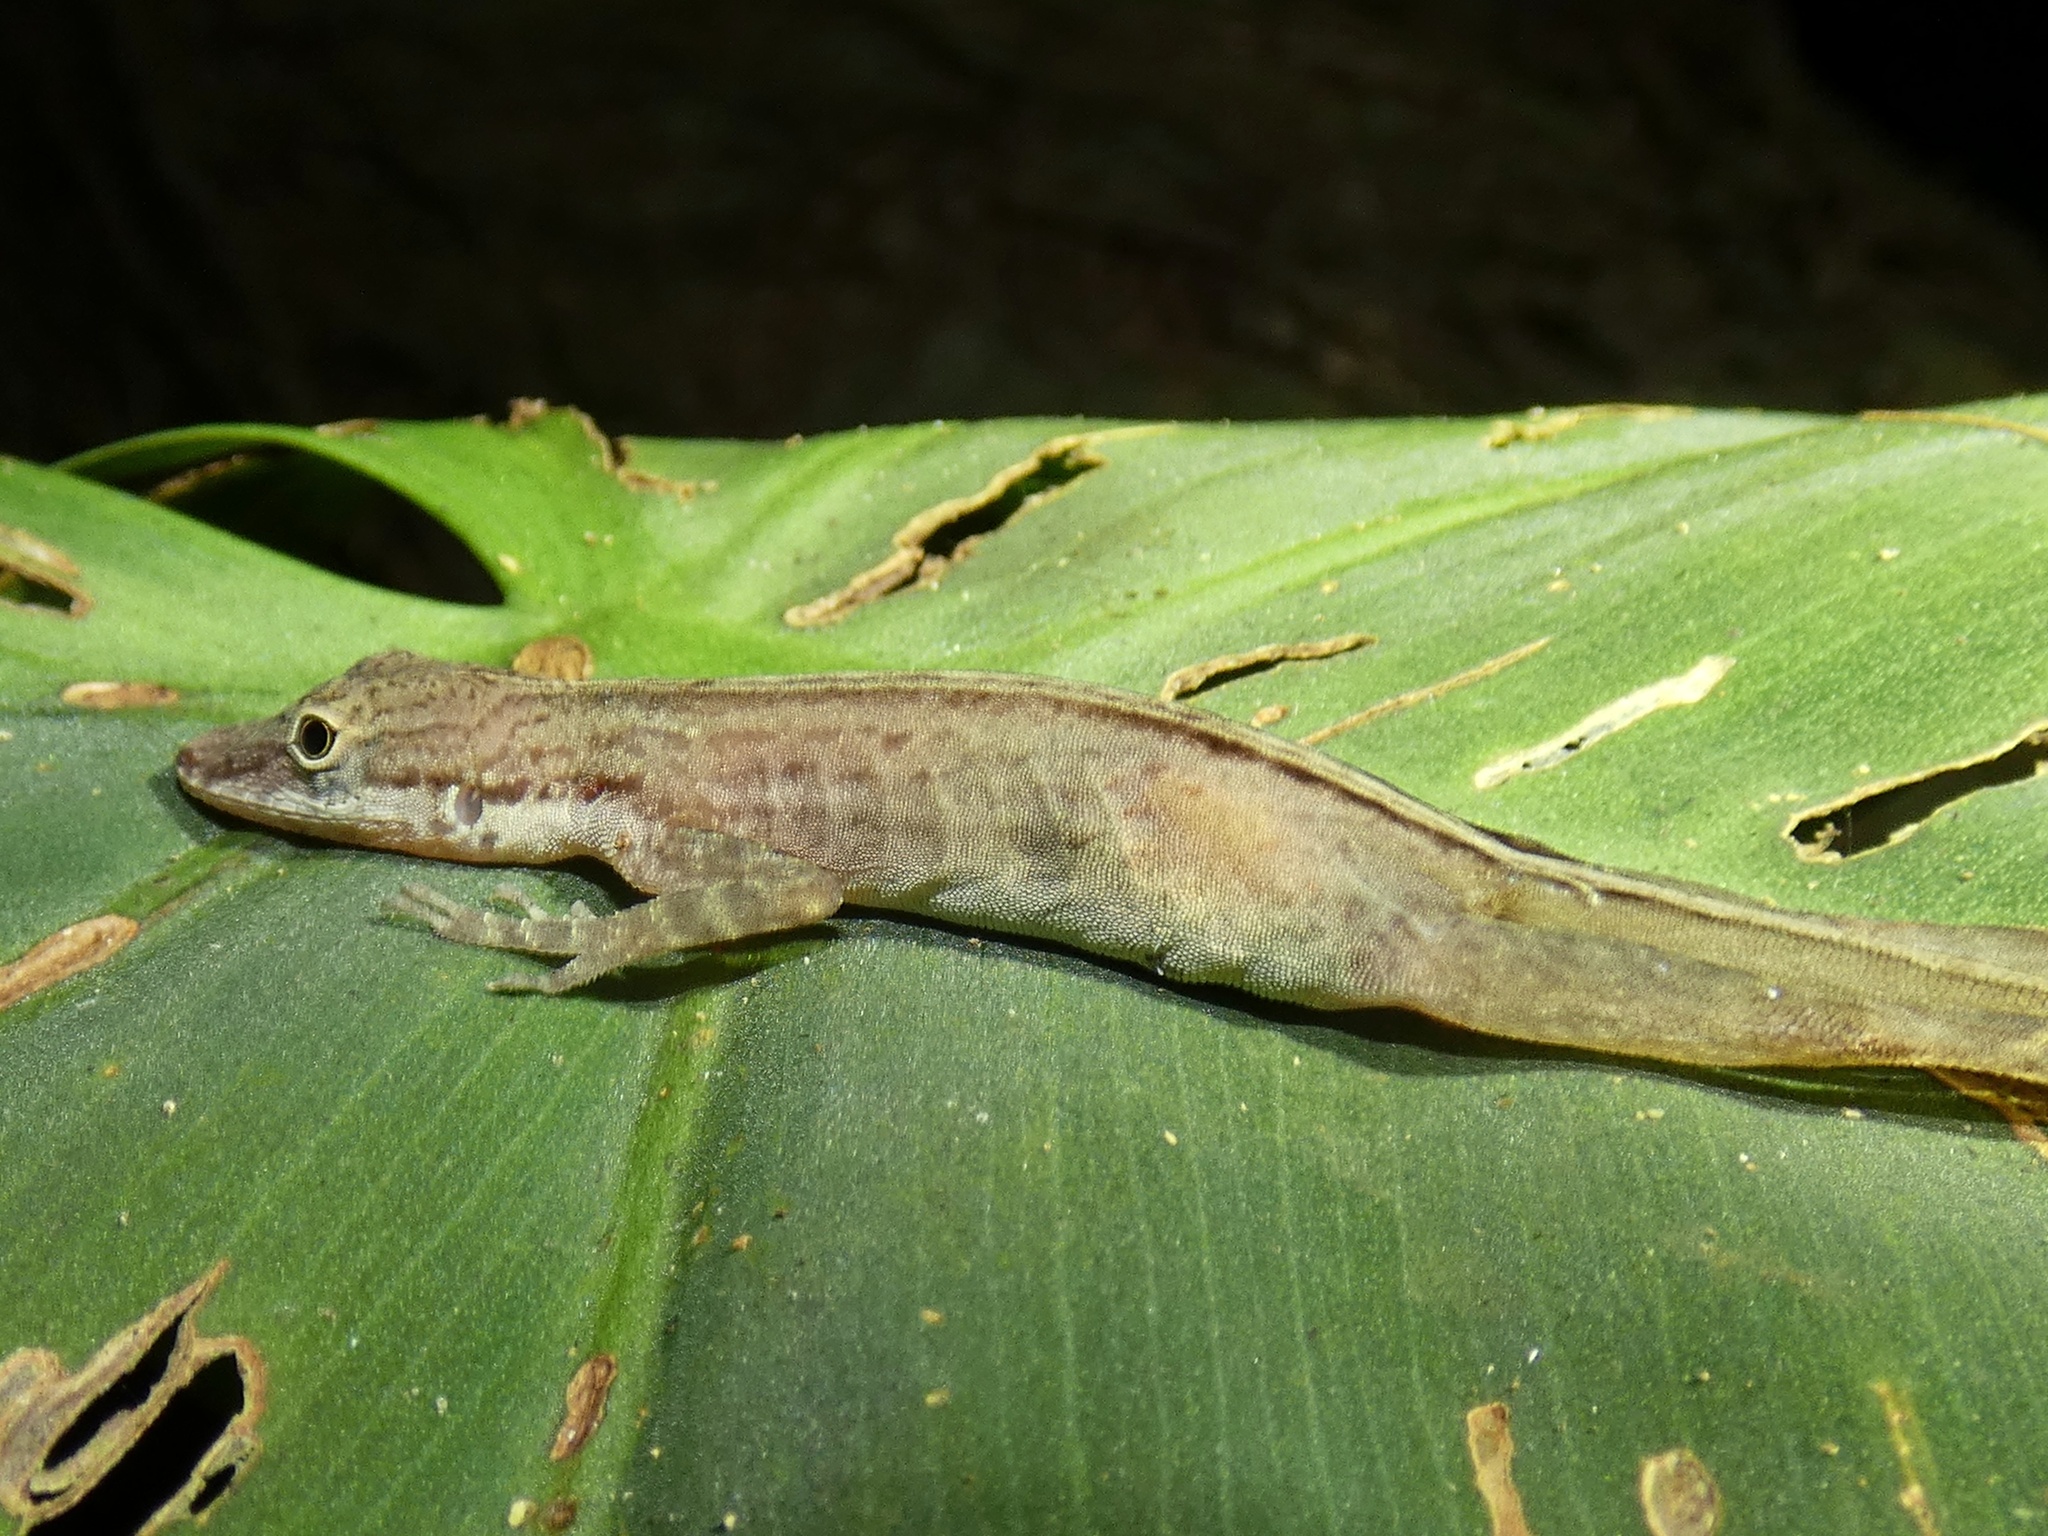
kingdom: Animalia
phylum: Chordata
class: Squamata
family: Dactyloidae
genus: Anolis
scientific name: Anolis apletophallus
